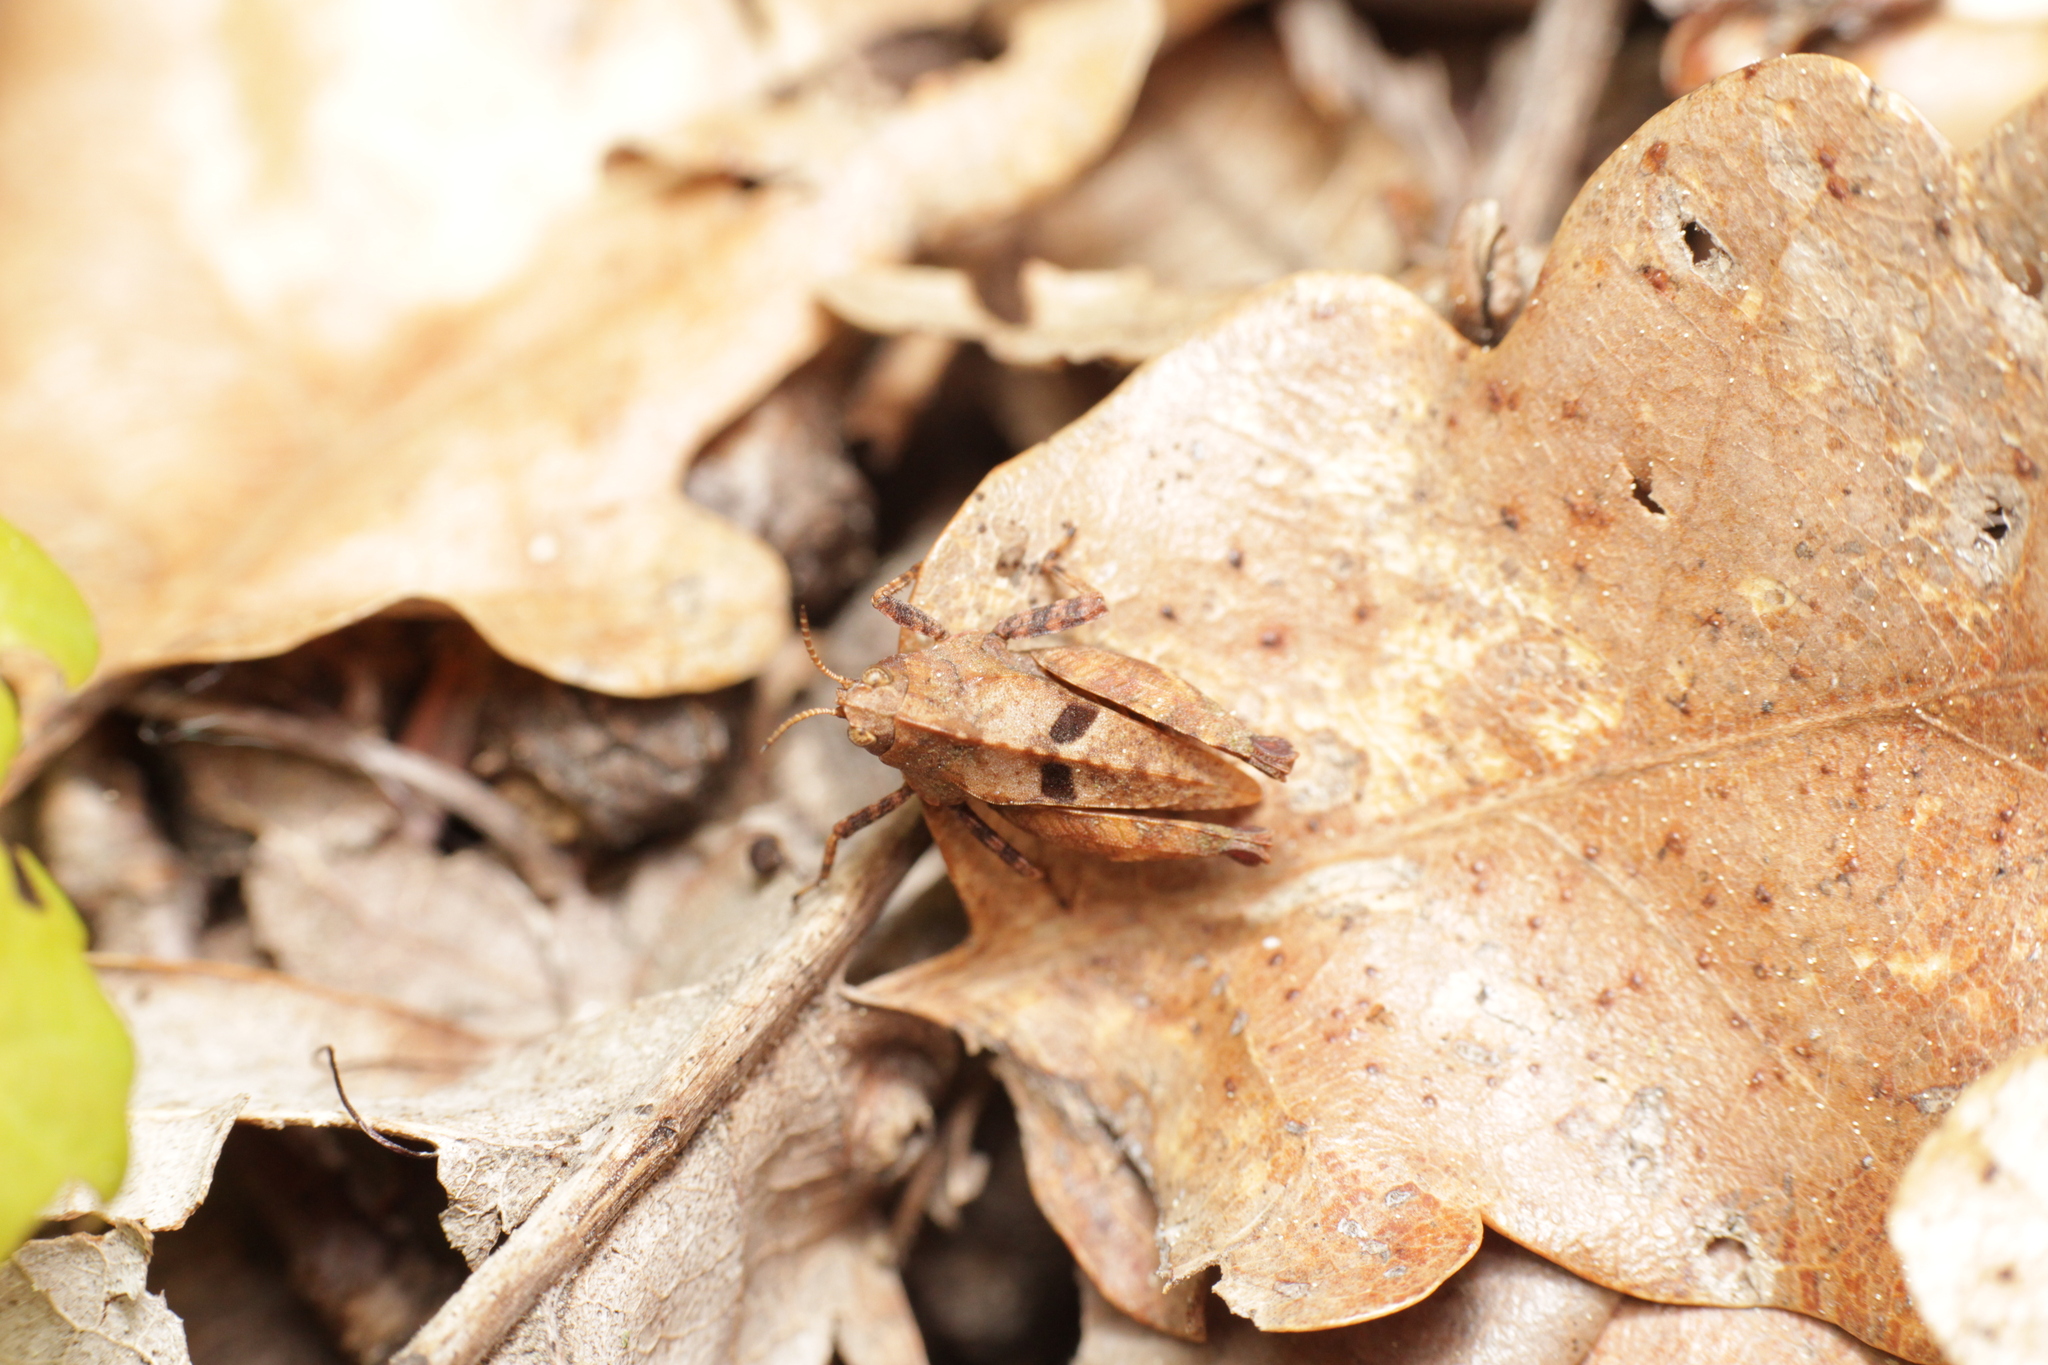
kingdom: Animalia
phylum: Arthropoda
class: Insecta
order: Orthoptera
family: Tetrigidae
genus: Tetrix
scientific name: Tetrix bipunctata
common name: Two-spotted groundhopper
